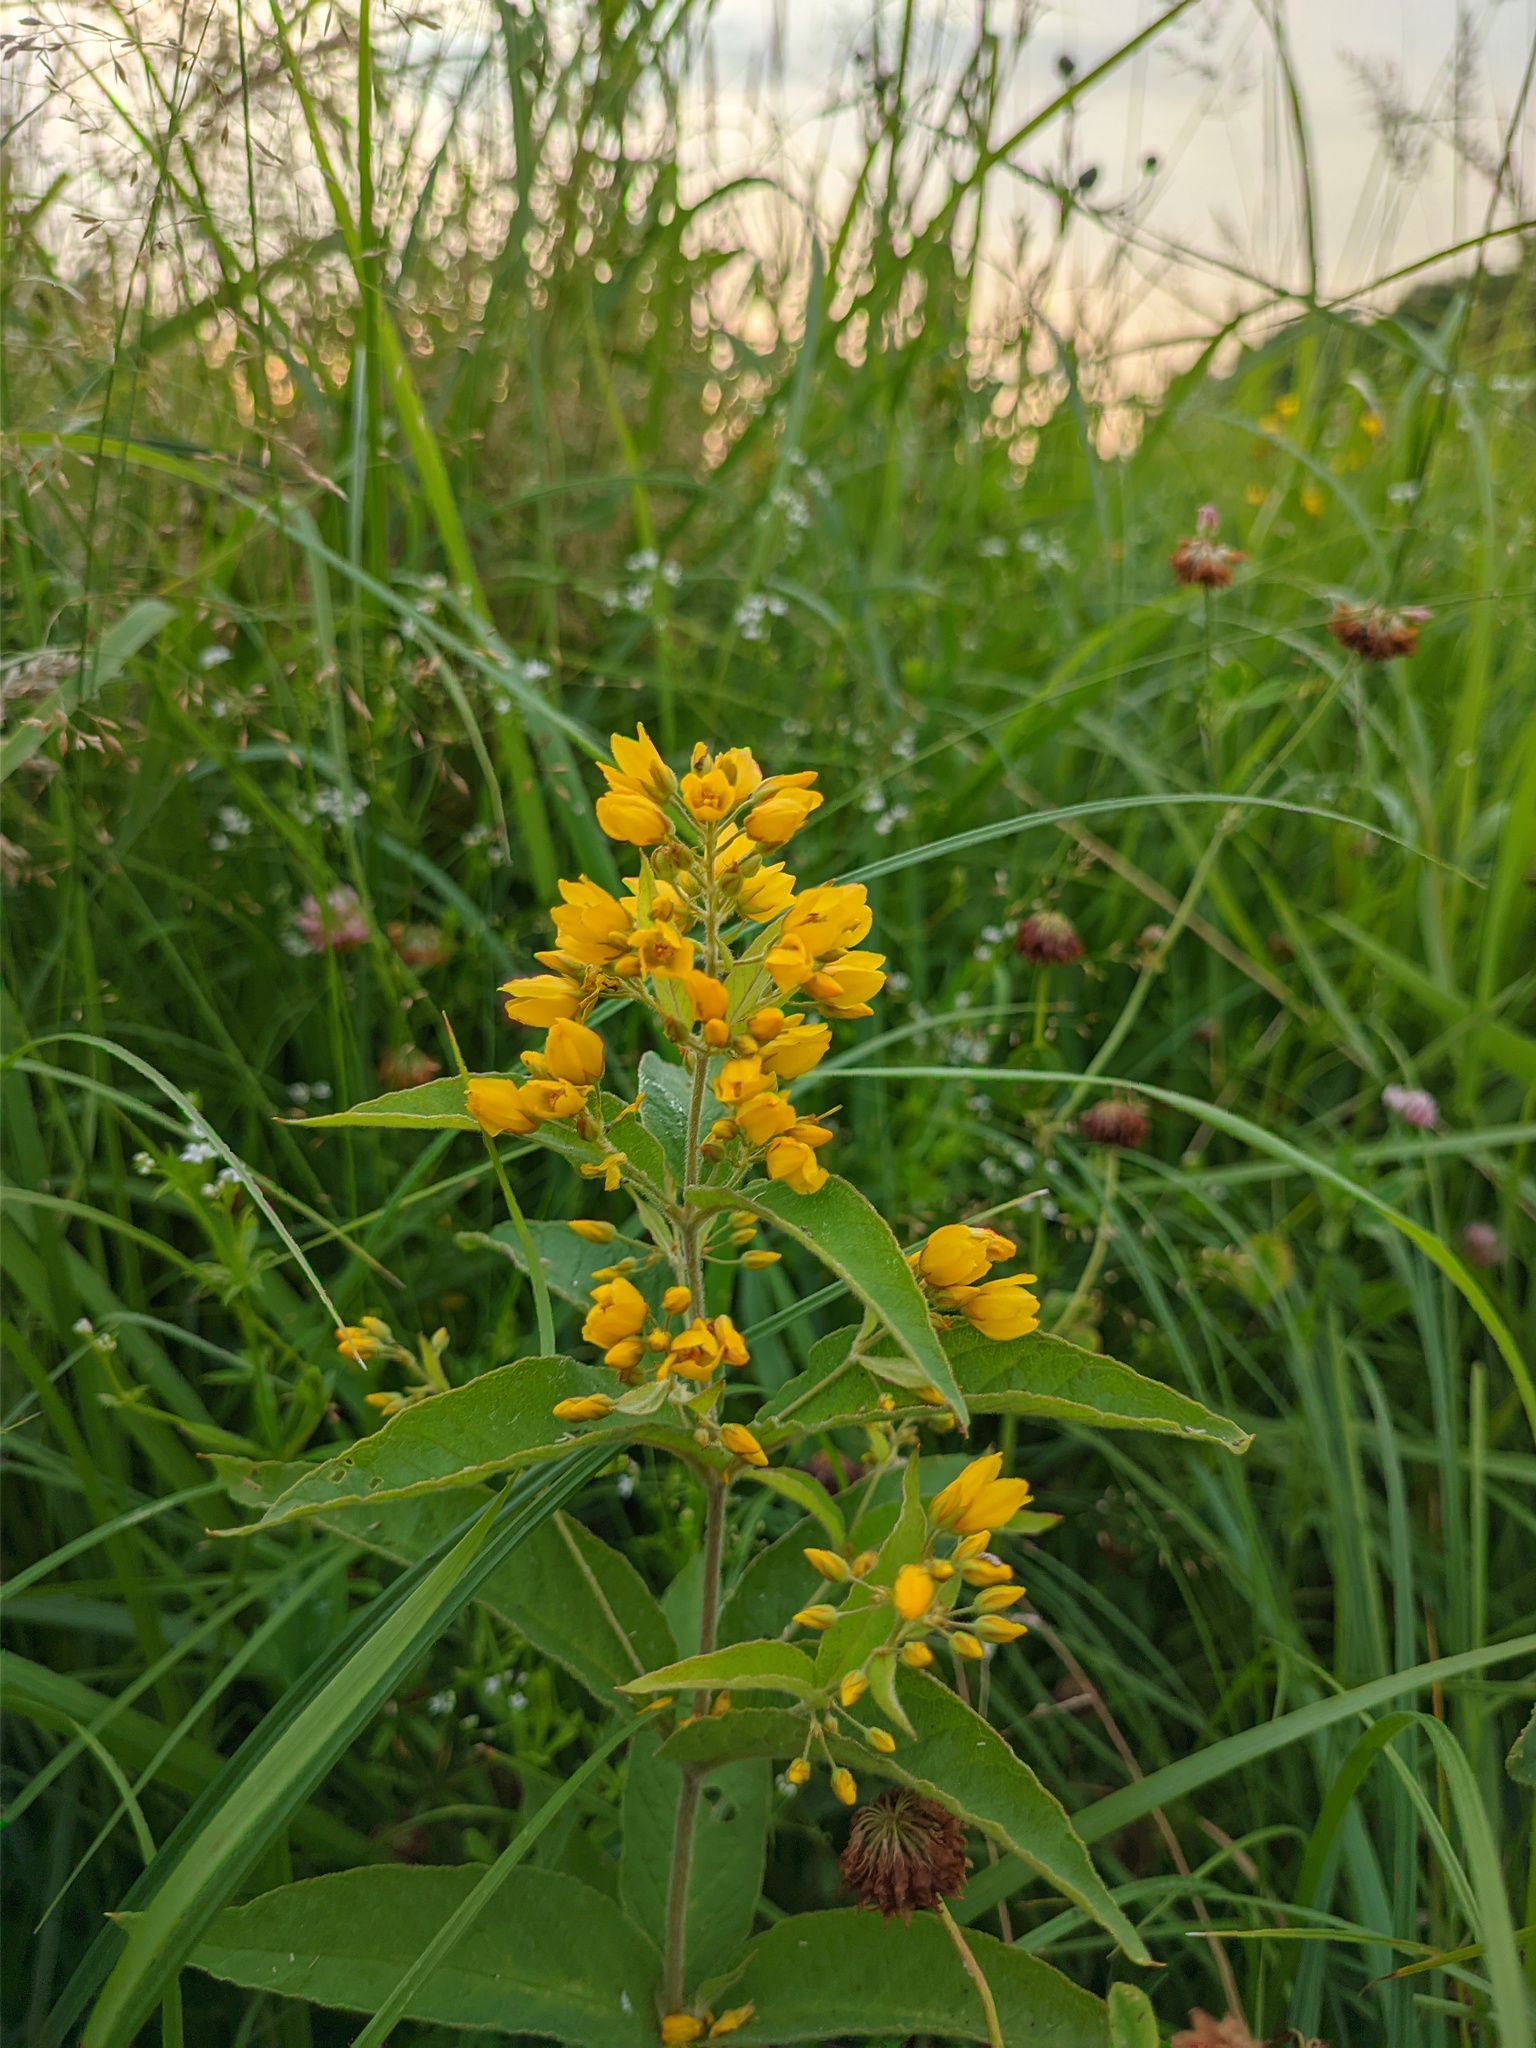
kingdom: Plantae
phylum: Tracheophyta
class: Magnoliopsida
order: Ericales
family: Primulaceae
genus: Lysimachia
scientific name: Lysimachia vulgaris
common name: Yellow loosestrife
